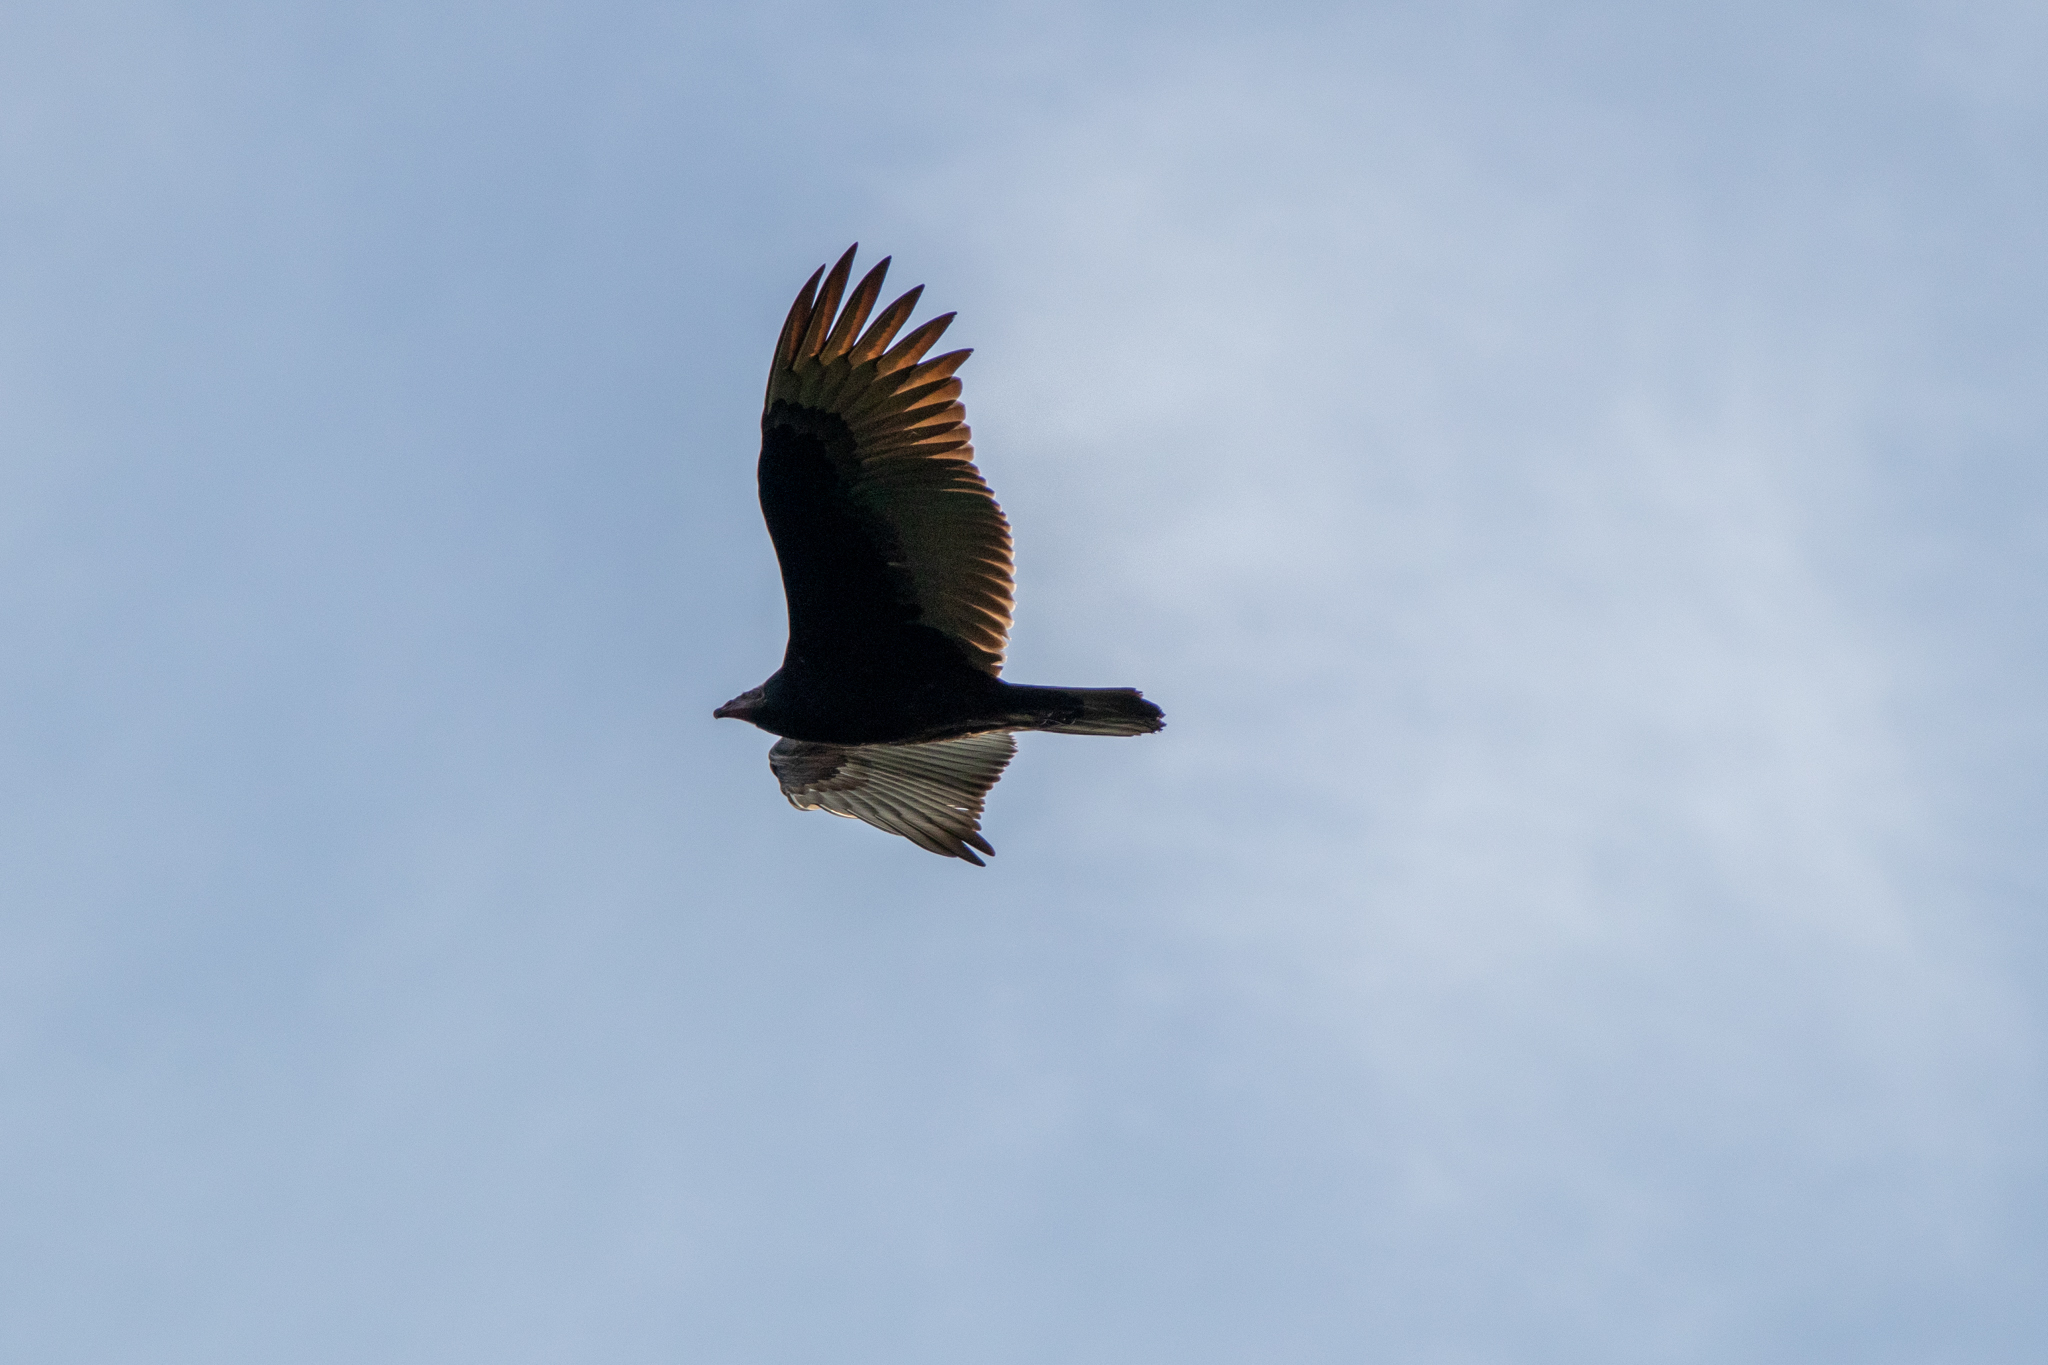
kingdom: Animalia
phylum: Chordata
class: Aves
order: Accipitriformes
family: Cathartidae
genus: Cathartes
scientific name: Cathartes aura
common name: Turkey vulture
